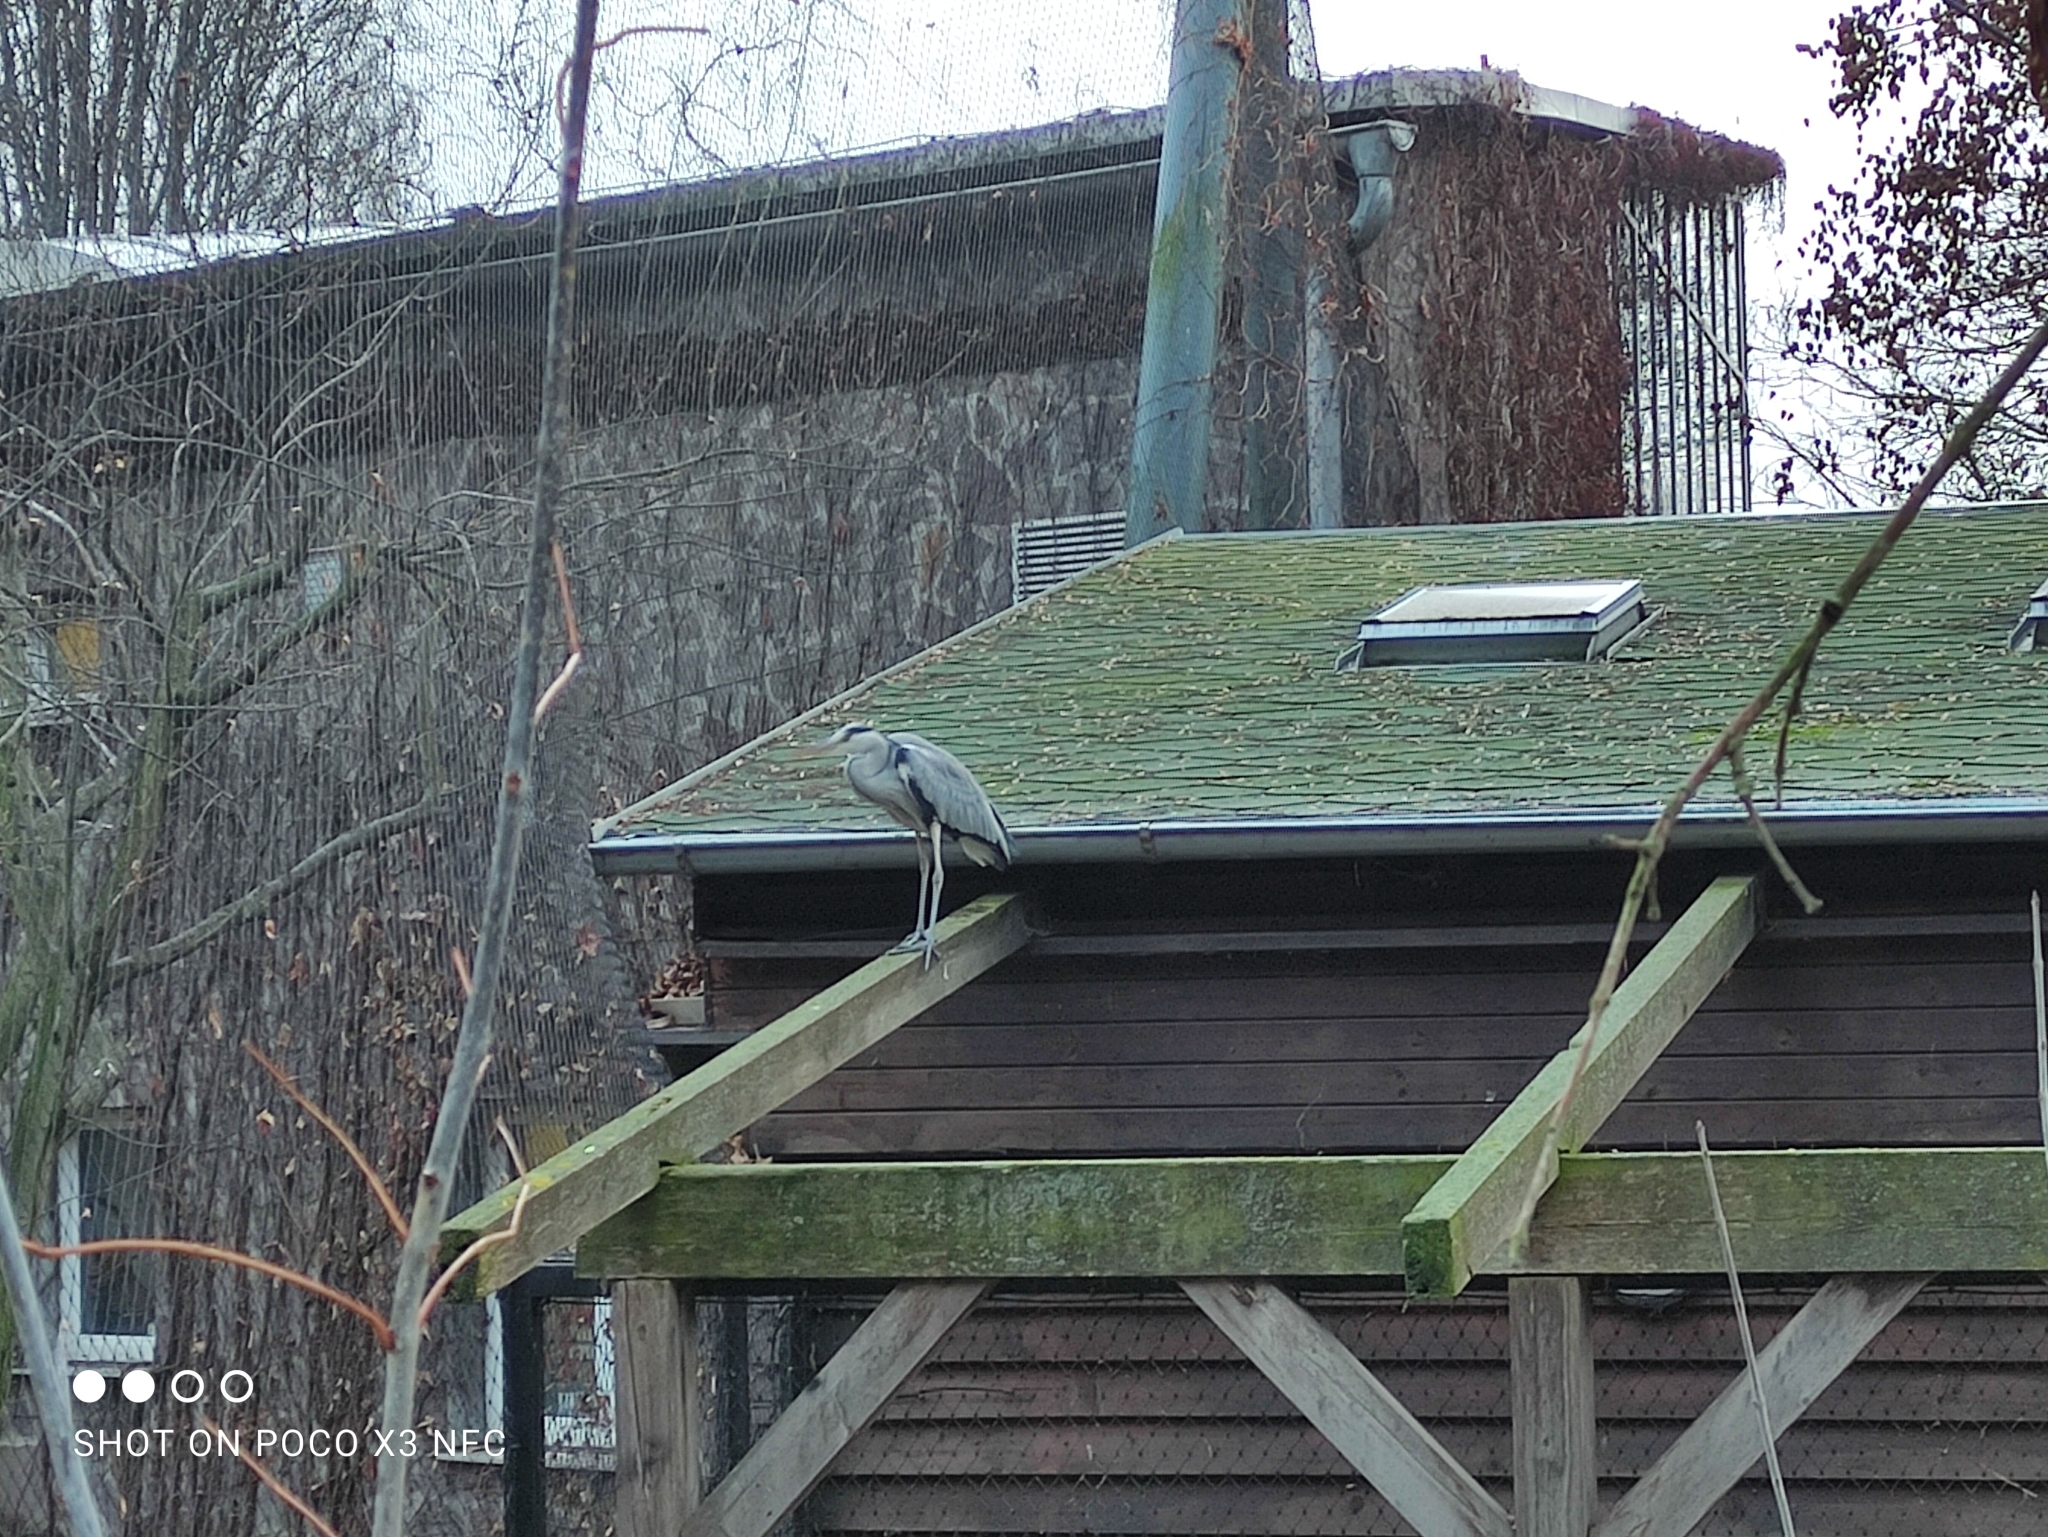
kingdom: Animalia
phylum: Chordata
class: Aves
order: Pelecaniformes
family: Ardeidae
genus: Ardea
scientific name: Ardea cinerea
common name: Grey heron
